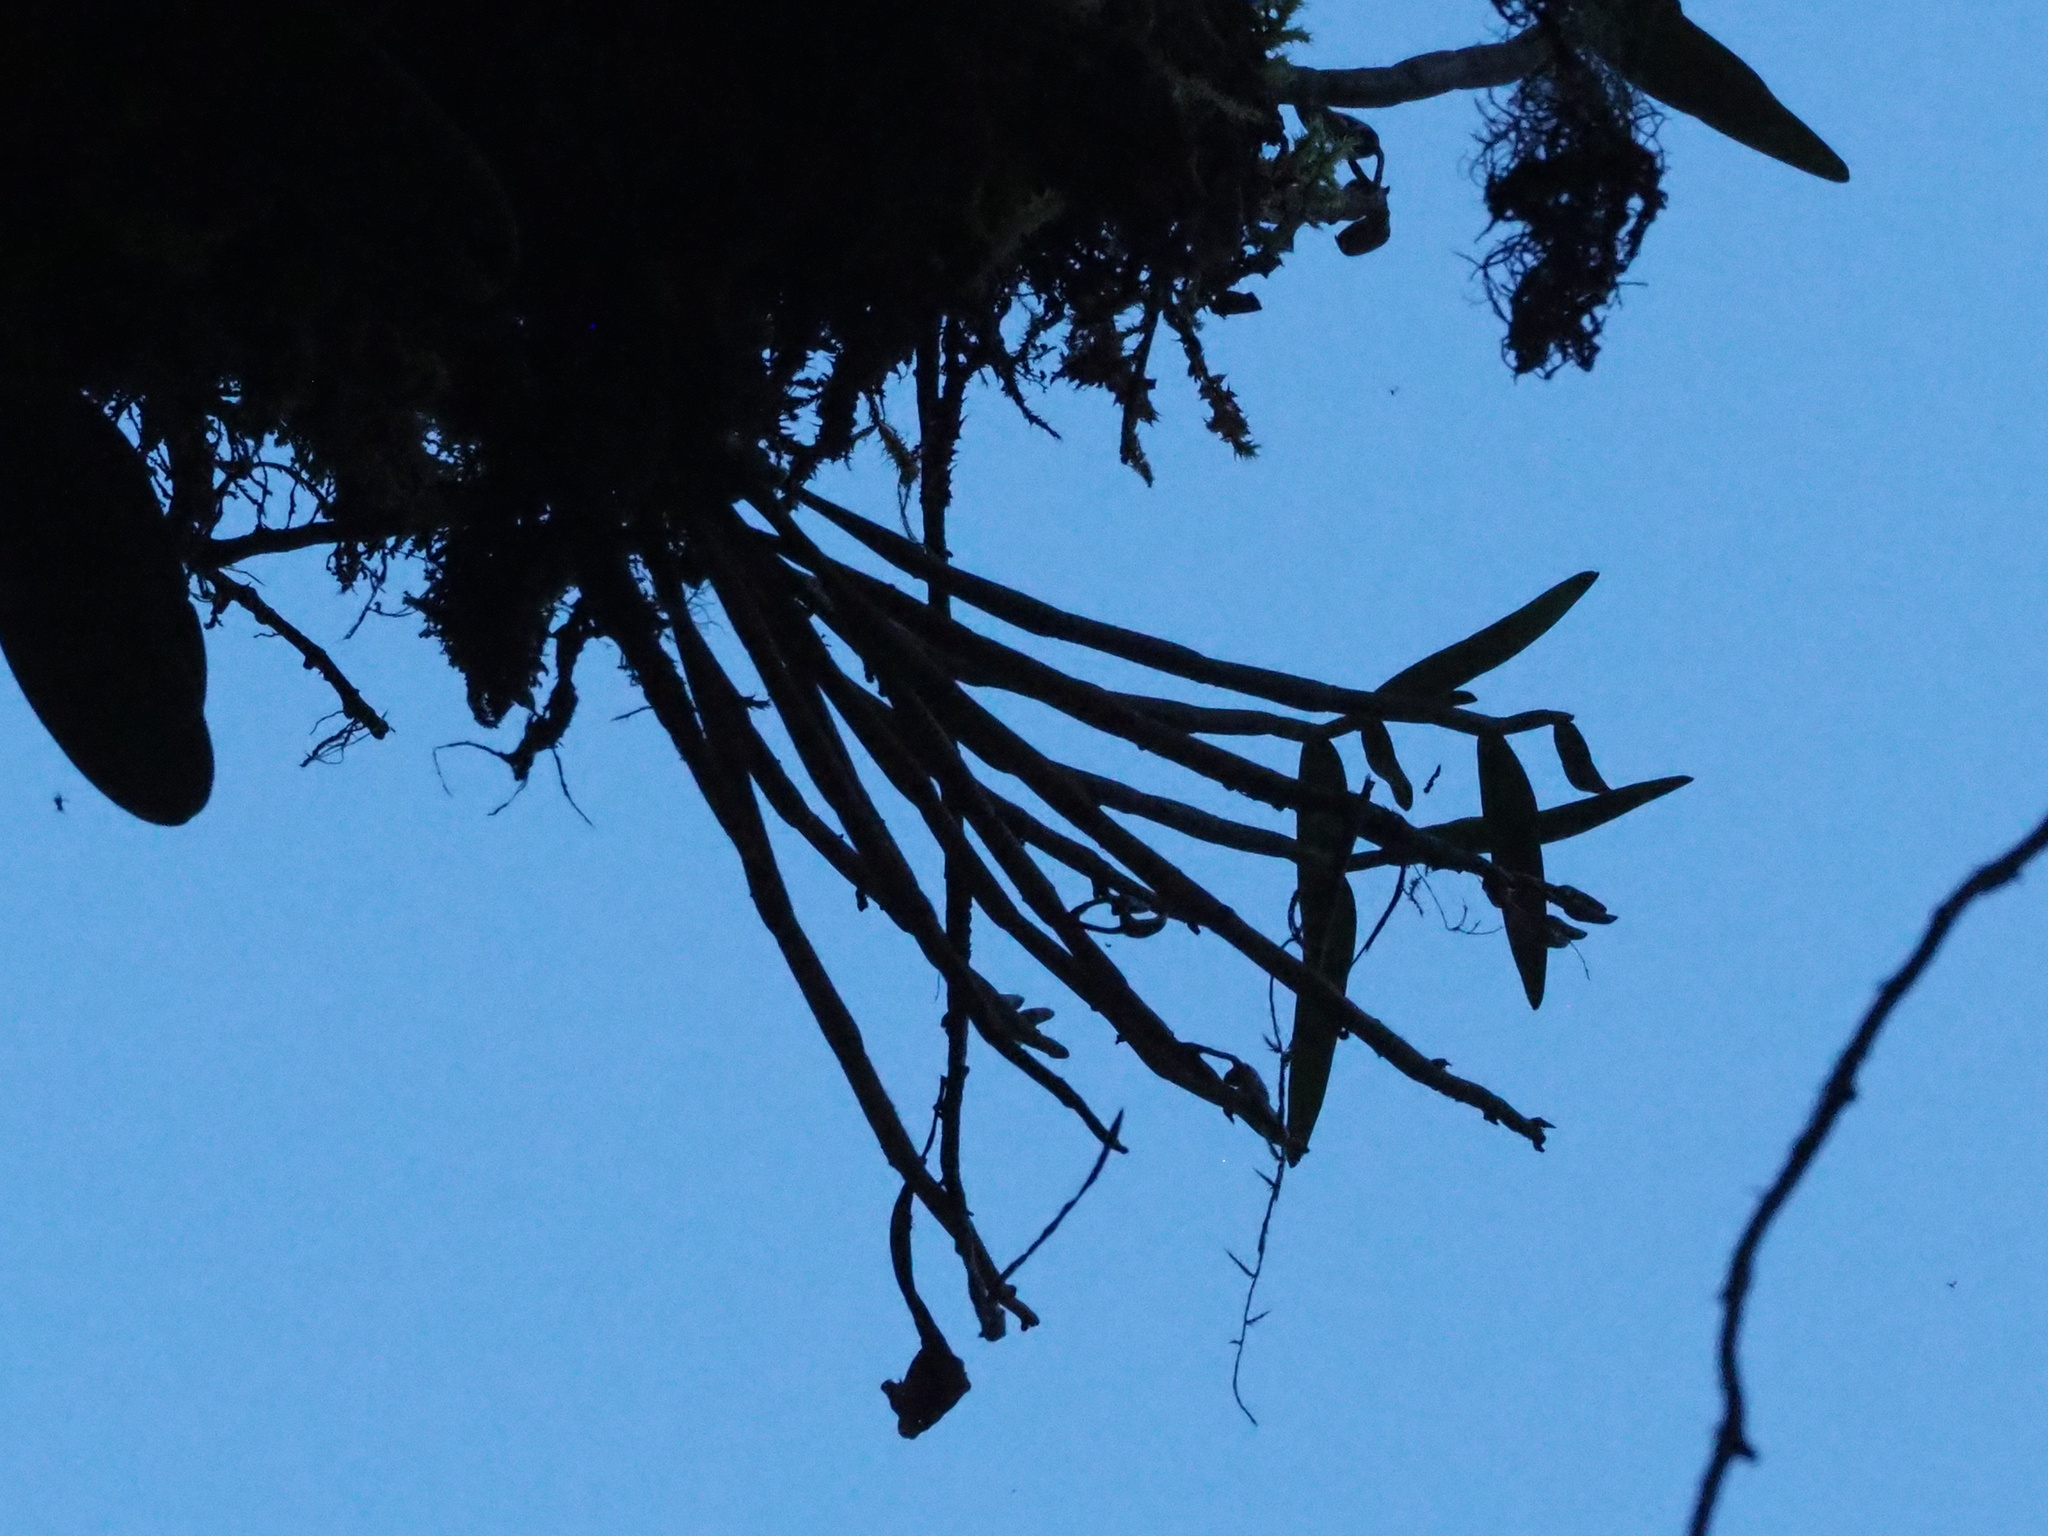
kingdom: Plantae
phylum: Tracheophyta
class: Liliopsida
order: Asparagales
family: Orchidaceae
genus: Dendrobium
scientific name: Dendrobium chryseum
